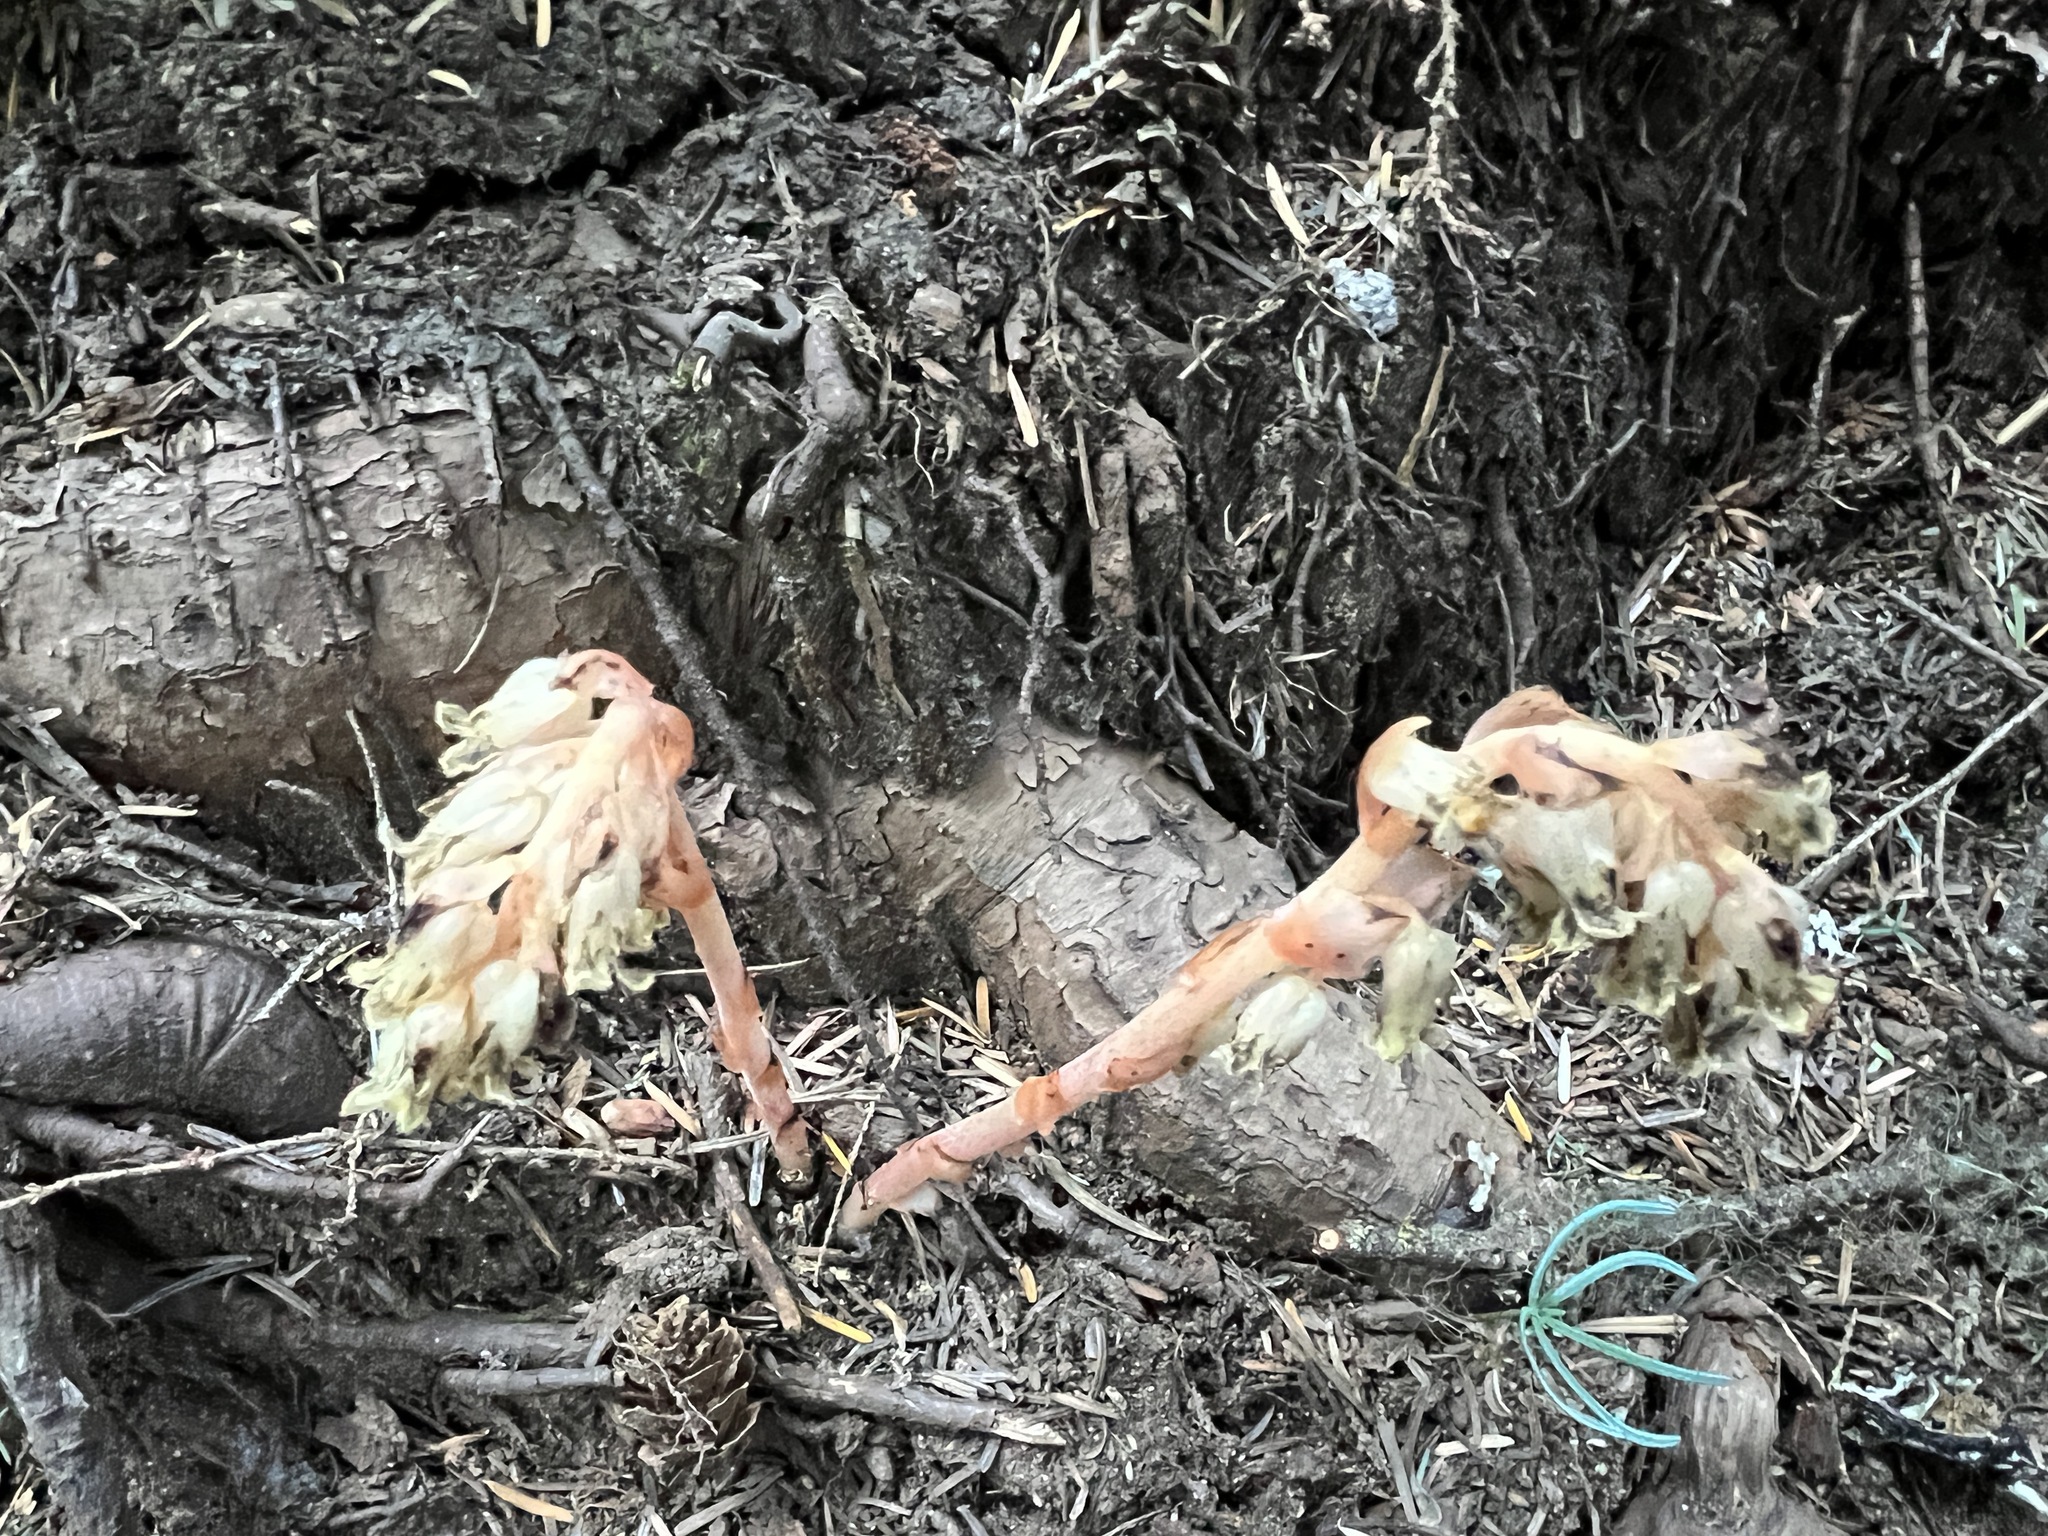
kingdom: Plantae
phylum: Tracheophyta
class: Magnoliopsida
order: Ericales
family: Ericaceae
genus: Hypopitys
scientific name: Hypopitys monotropa
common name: Yellow bird's-nest
